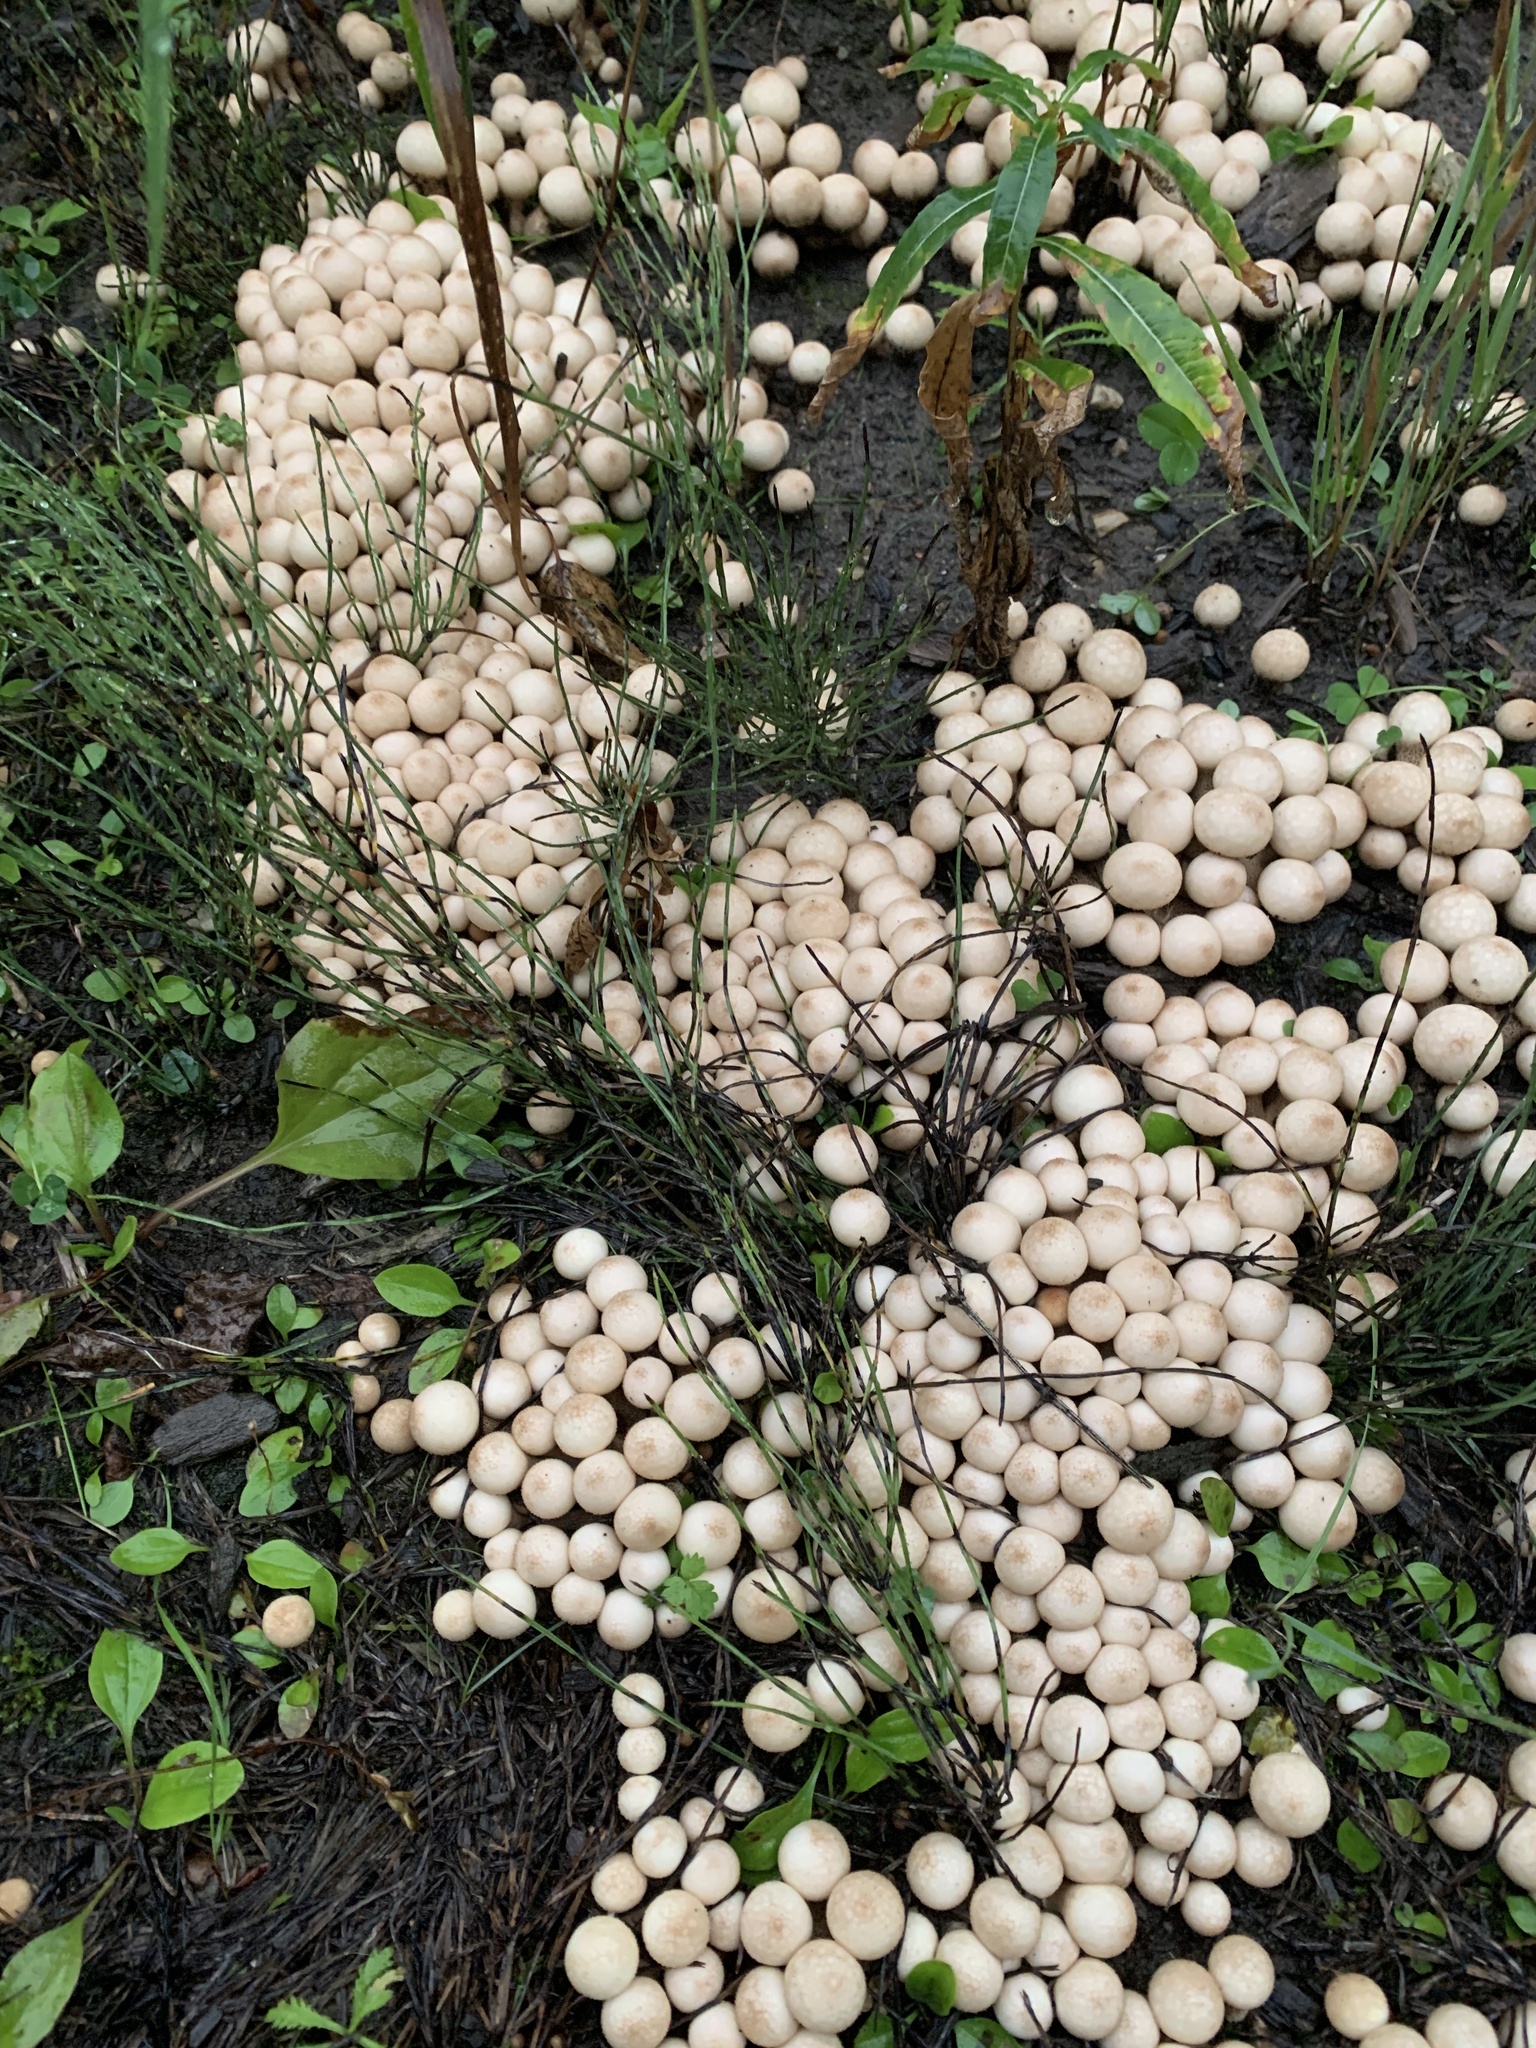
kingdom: Fungi
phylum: Basidiomycota
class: Agaricomycetes
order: Agaricales
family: Lycoperdaceae
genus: Apioperdon
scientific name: Apioperdon pyriforme
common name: Pear-shaped puffball
